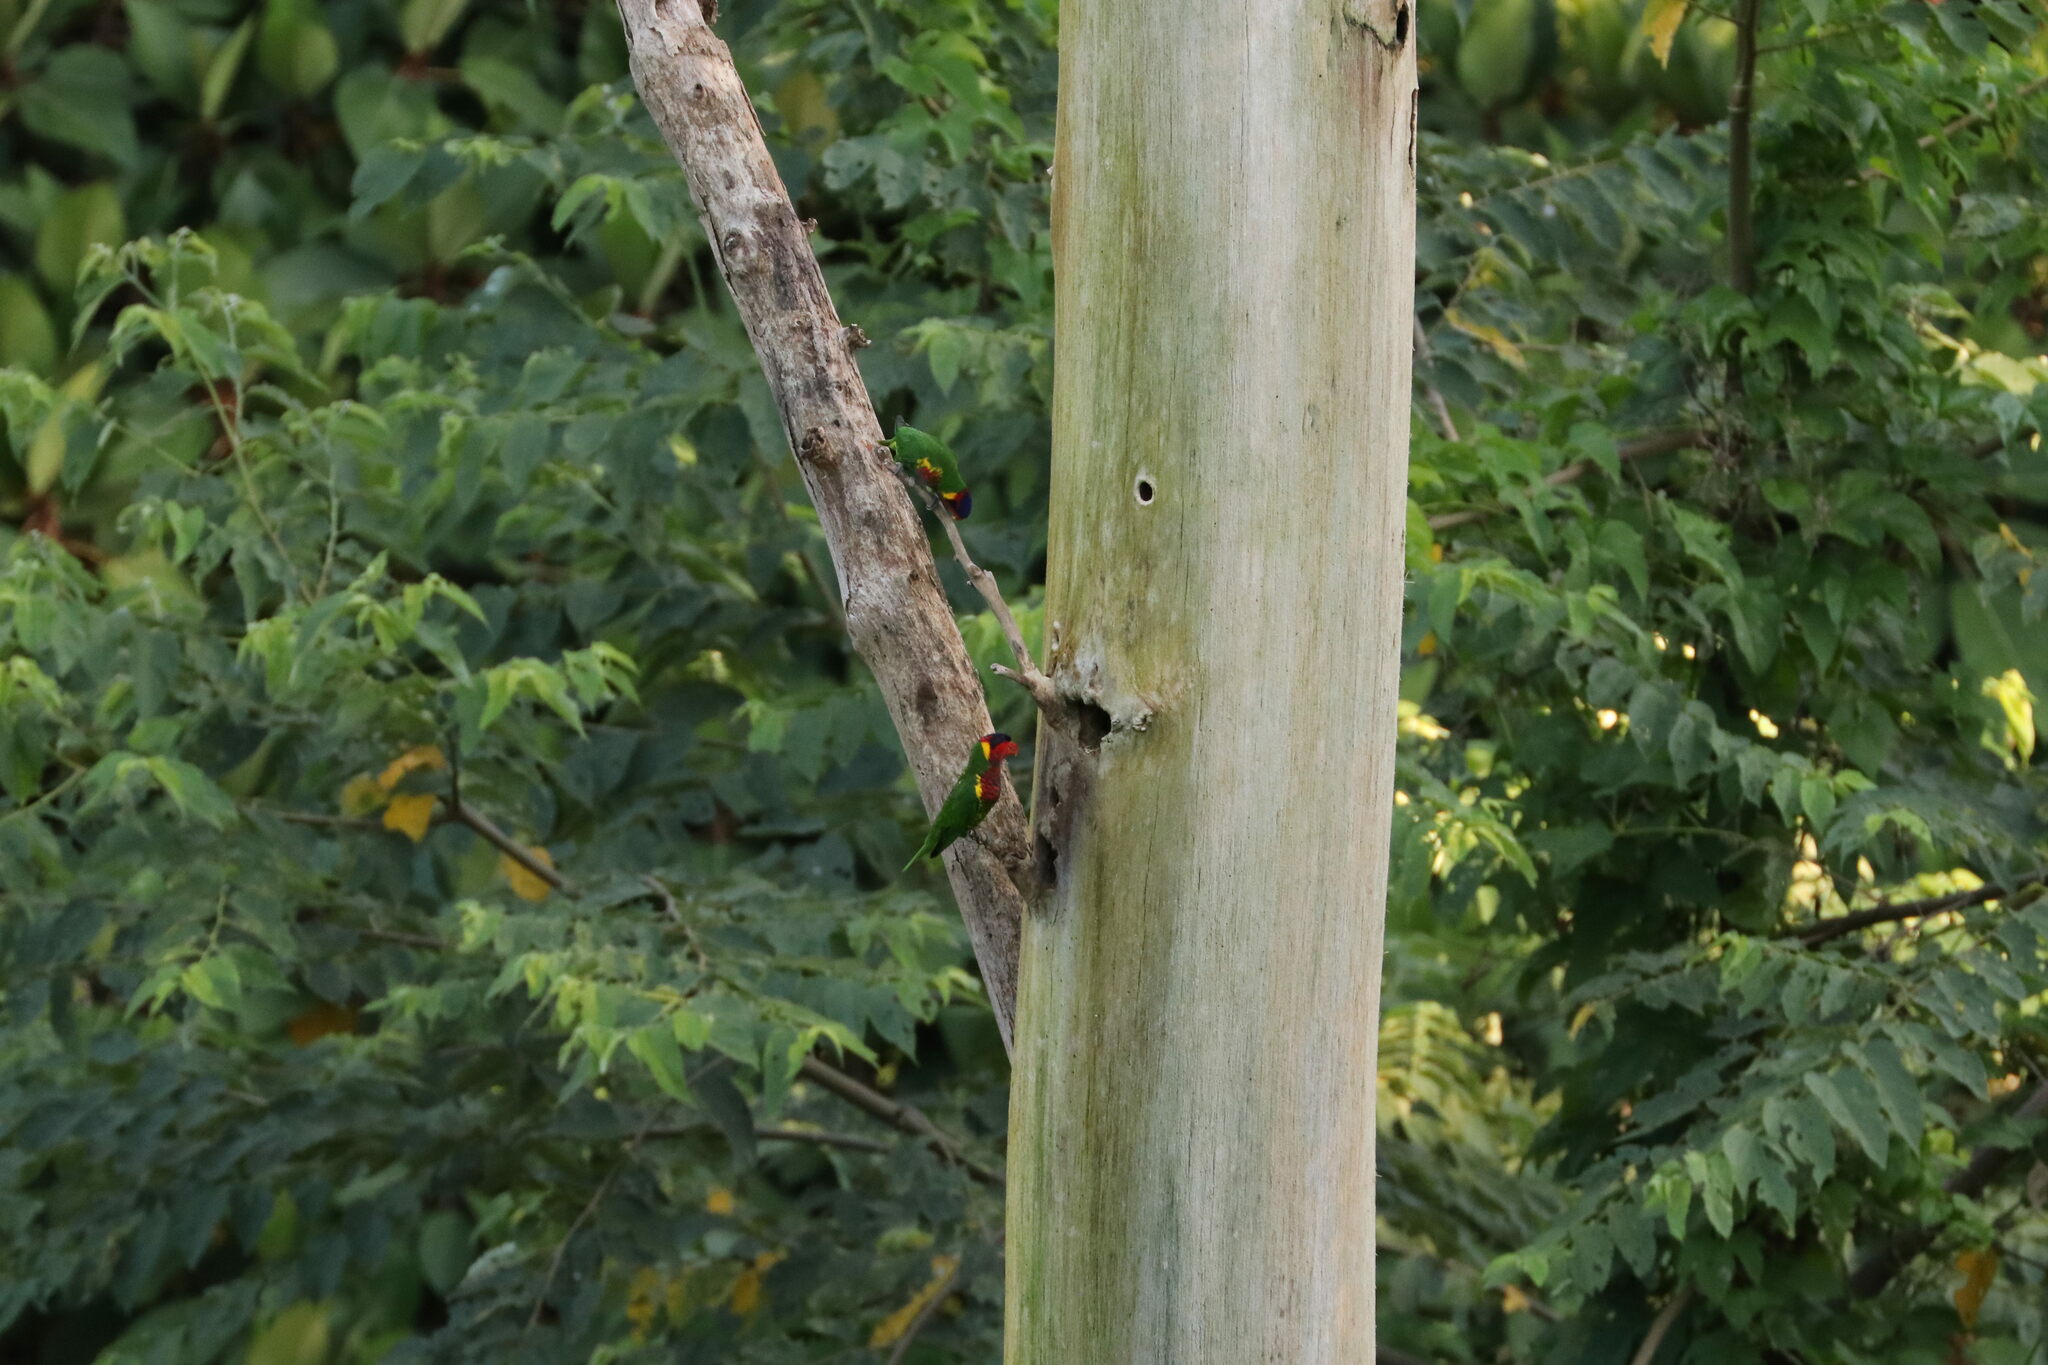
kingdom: Animalia
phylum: Chordata
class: Aves
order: Psittaciformes
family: Psittaculidae
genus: Saudareos
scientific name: Saudareos ornata
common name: Ornate lorikeet
